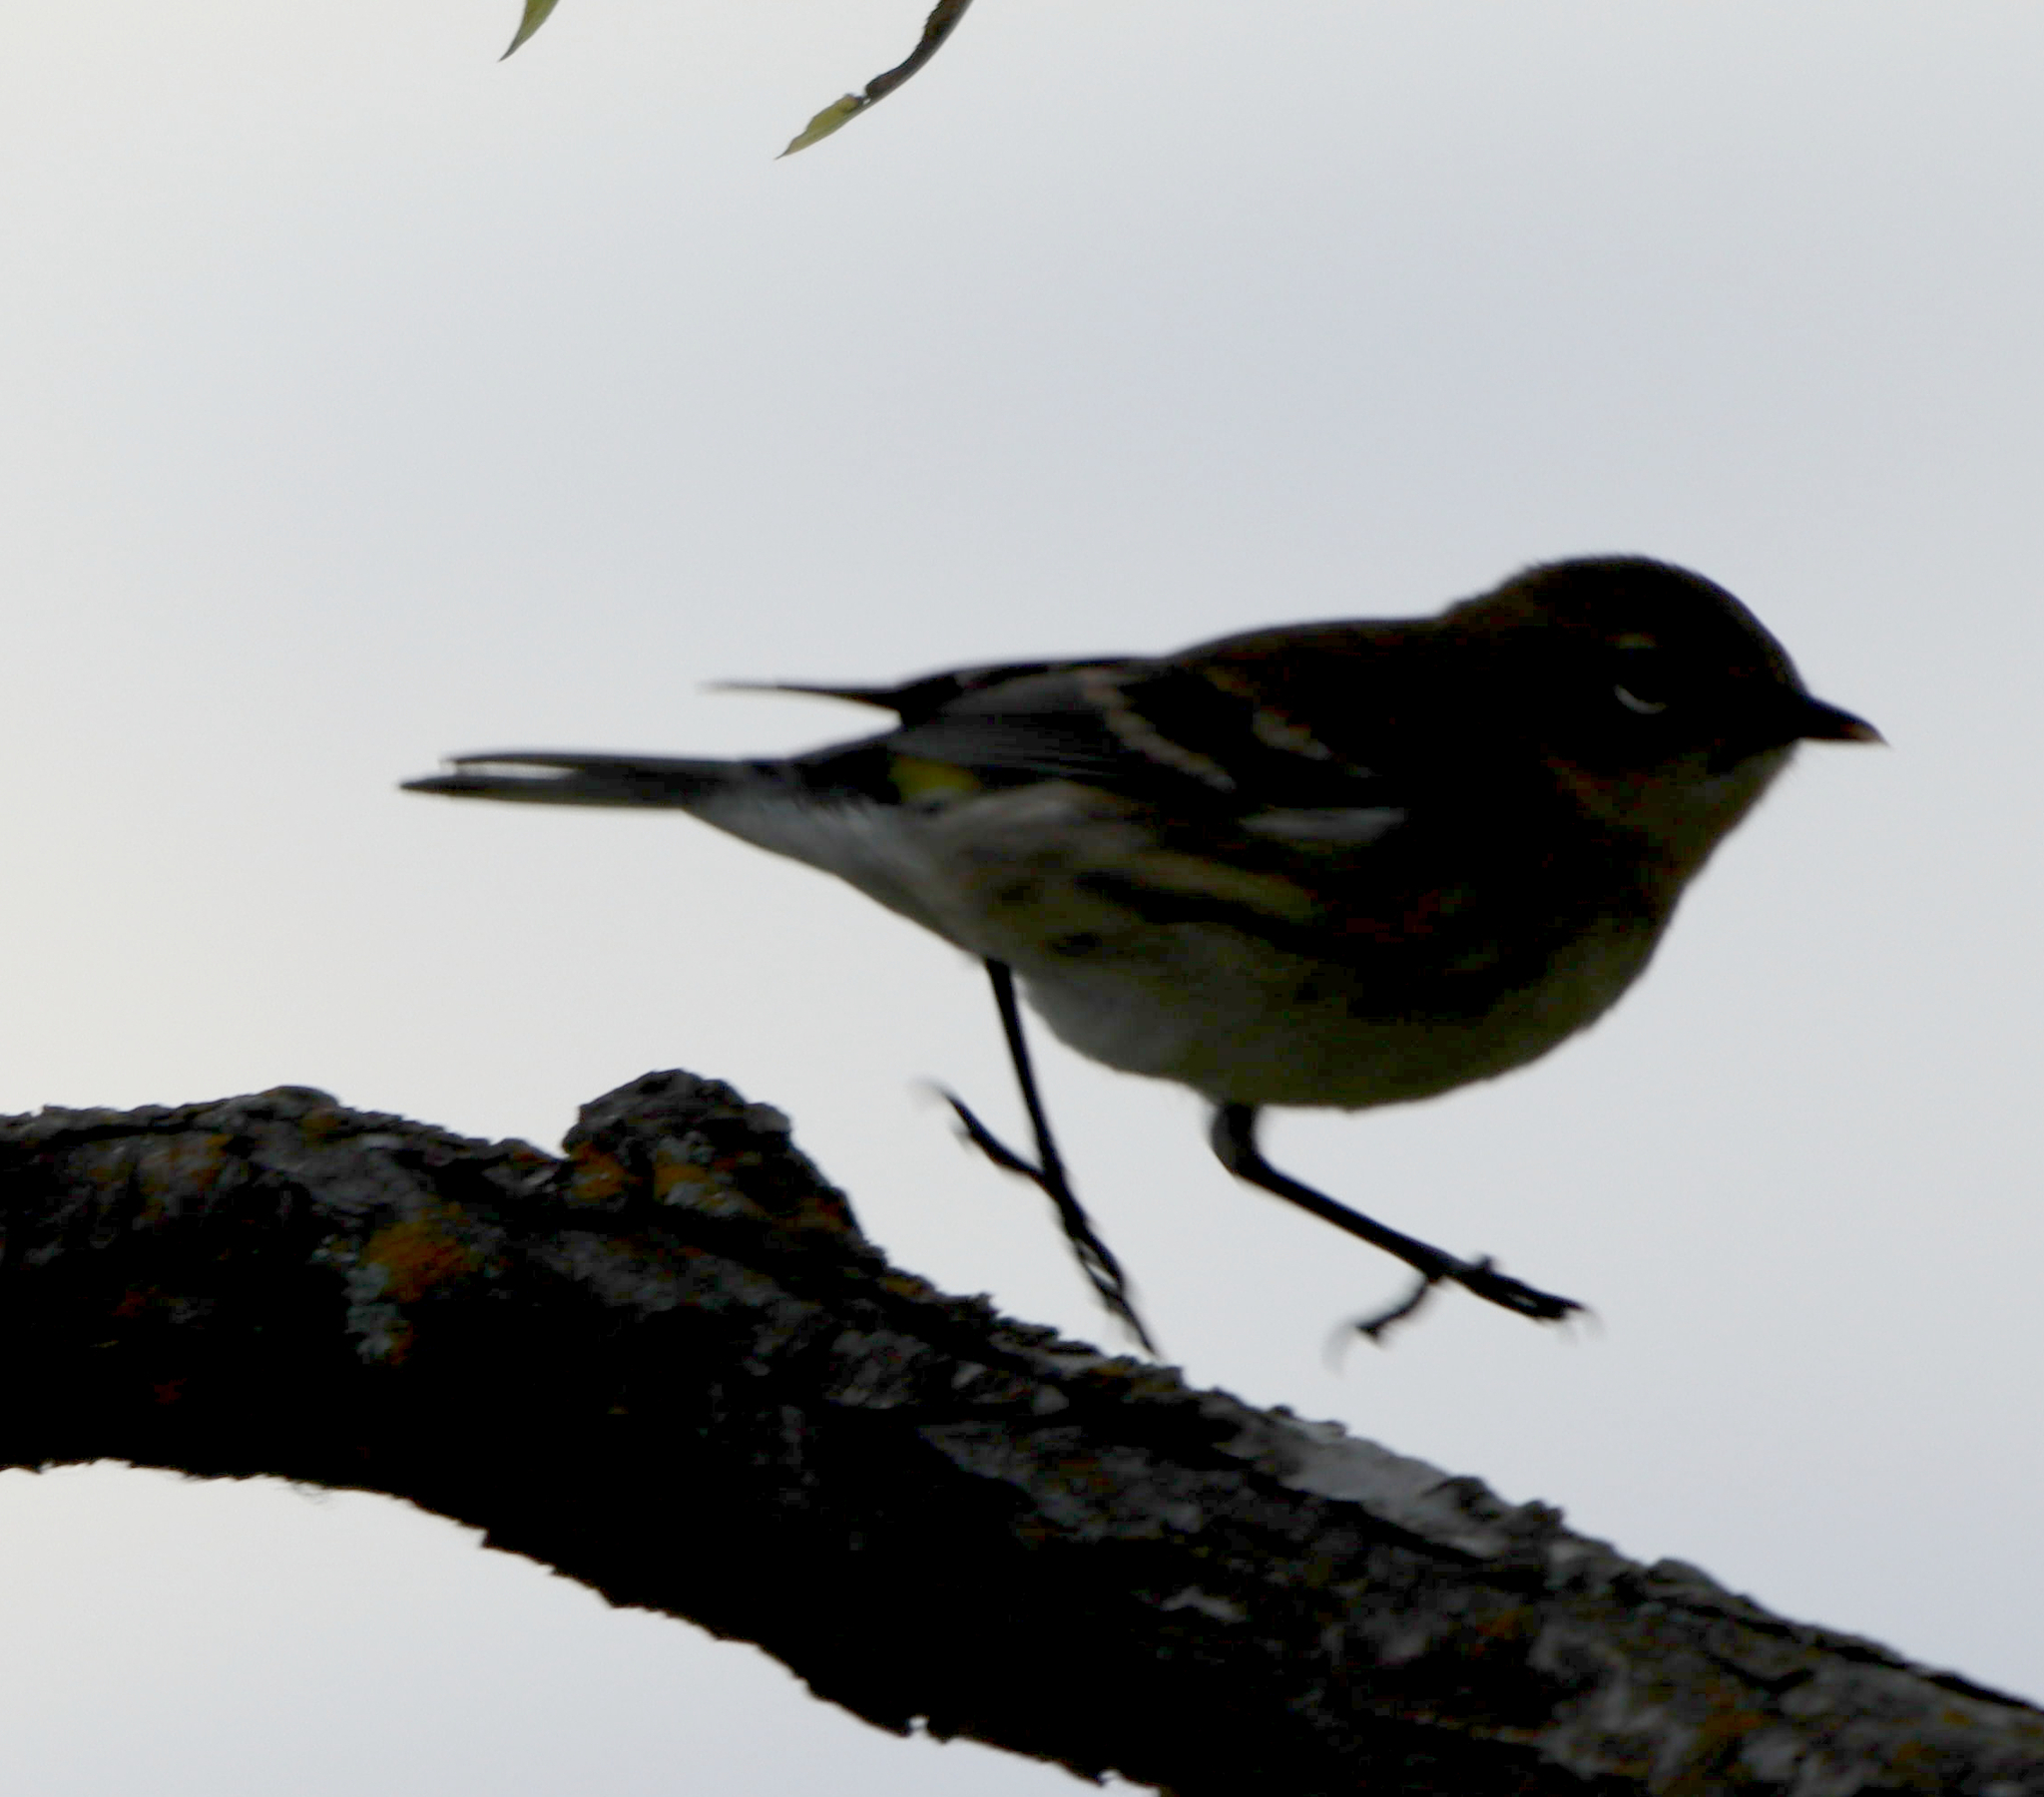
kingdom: Animalia
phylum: Chordata
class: Aves
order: Passeriformes
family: Parulidae
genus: Setophaga
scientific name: Setophaga coronata
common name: Myrtle warbler
